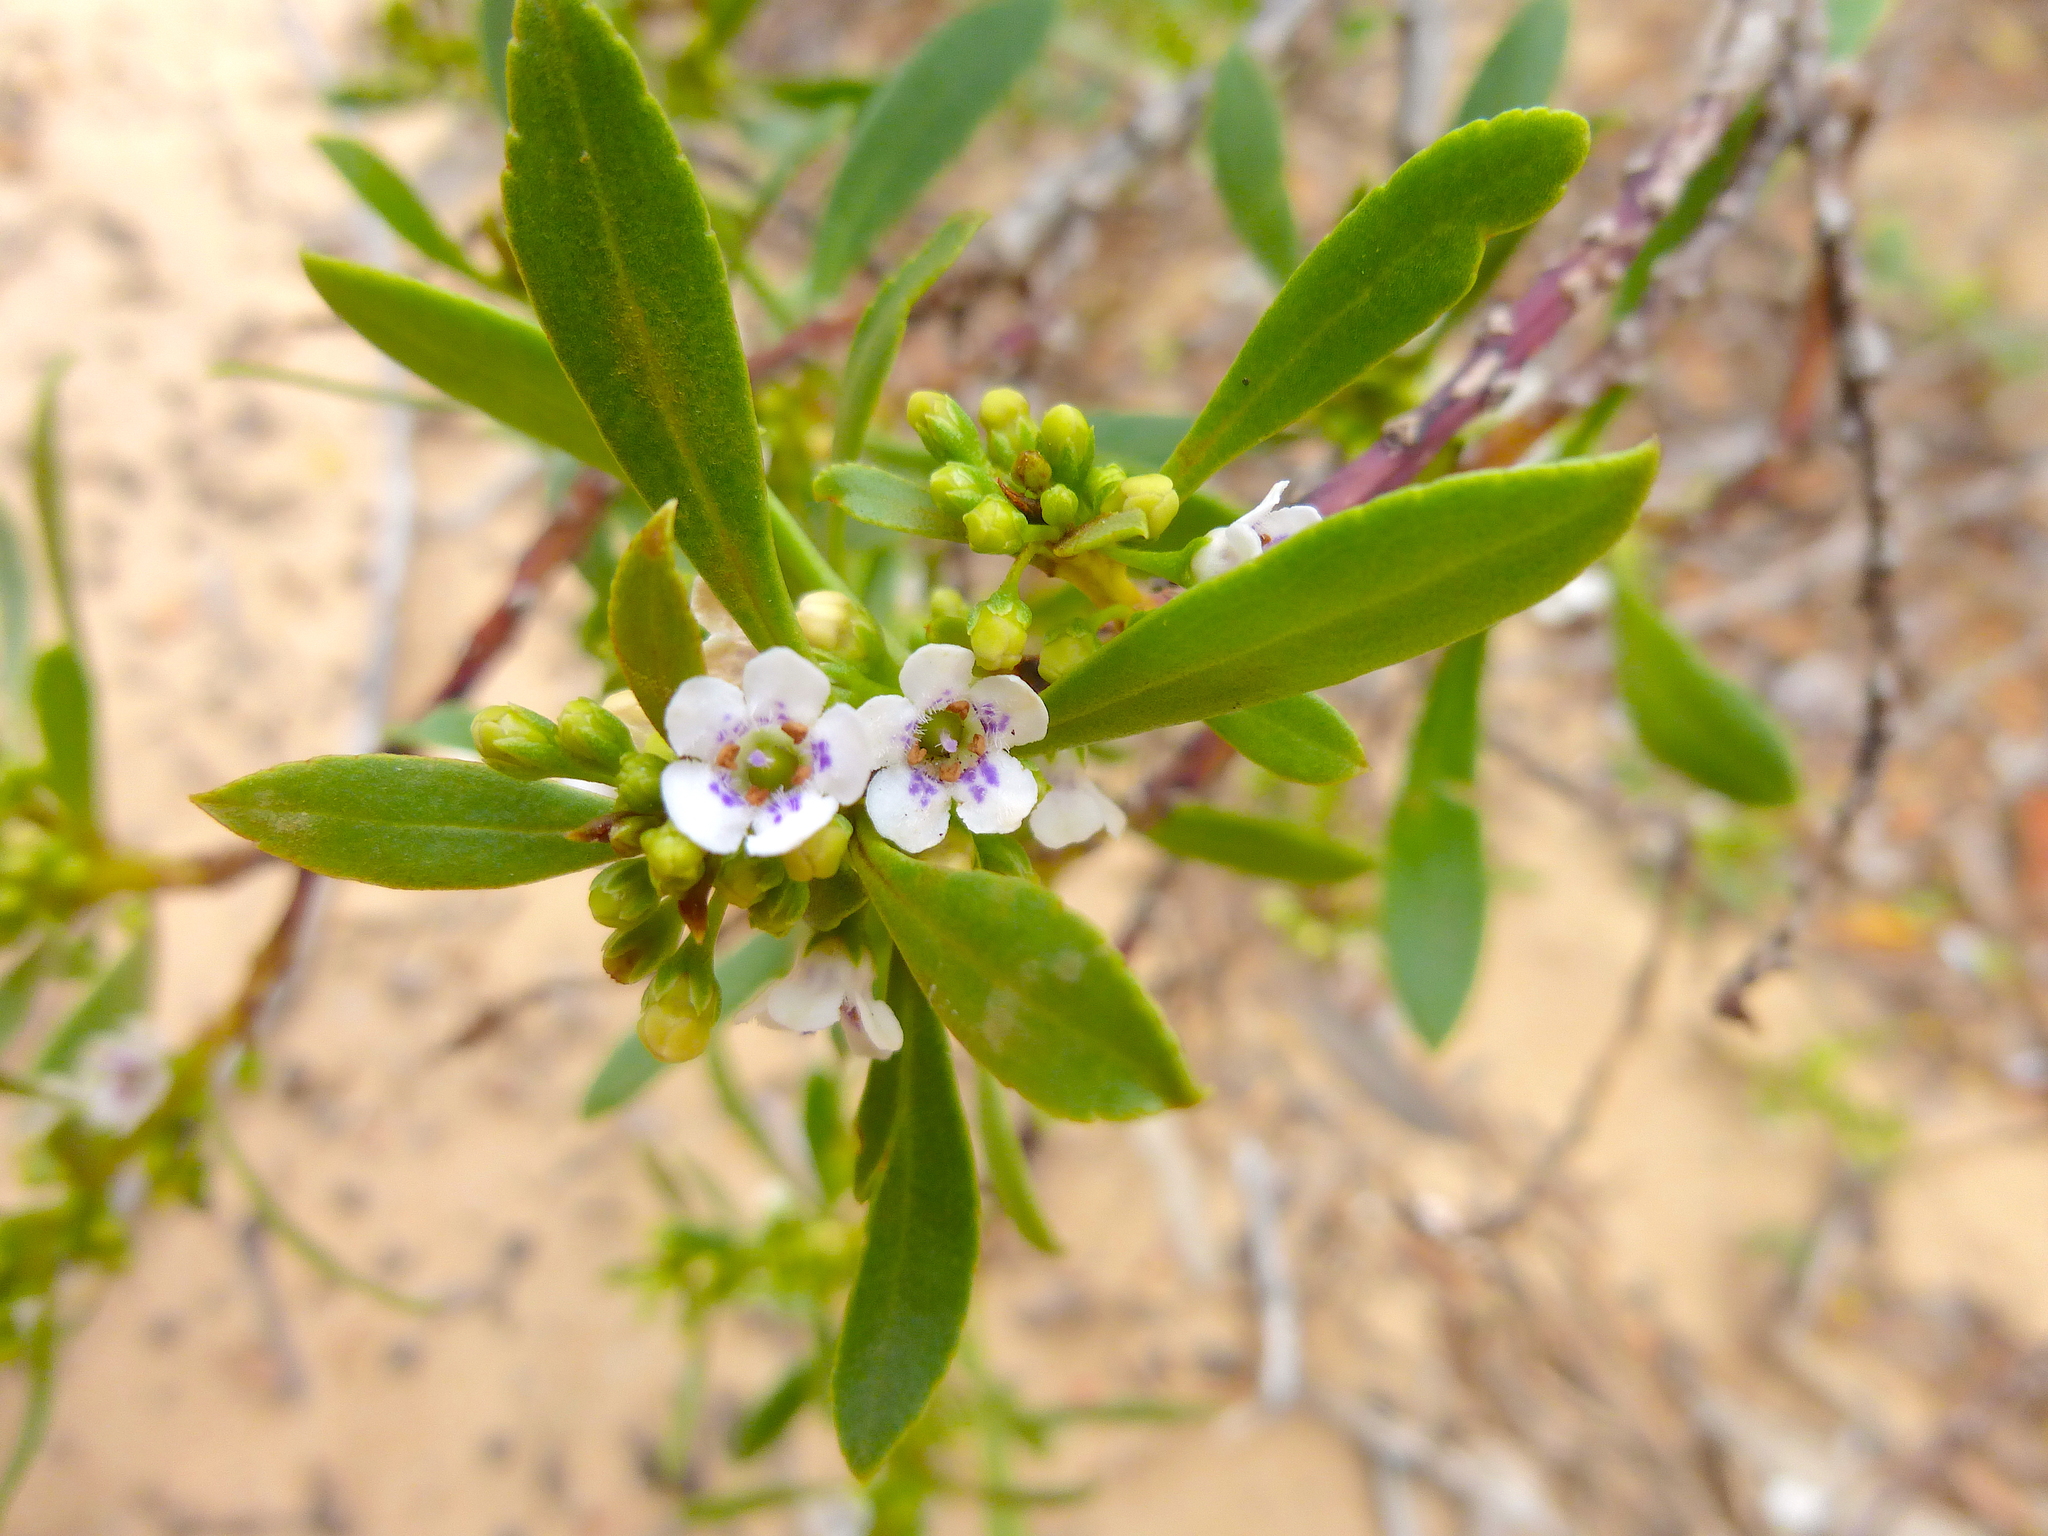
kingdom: Plantae
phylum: Tracheophyta
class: Magnoliopsida
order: Lamiales
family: Scrophulariaceae
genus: Myoporum
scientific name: Myoporum insulare
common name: Common boobialla
